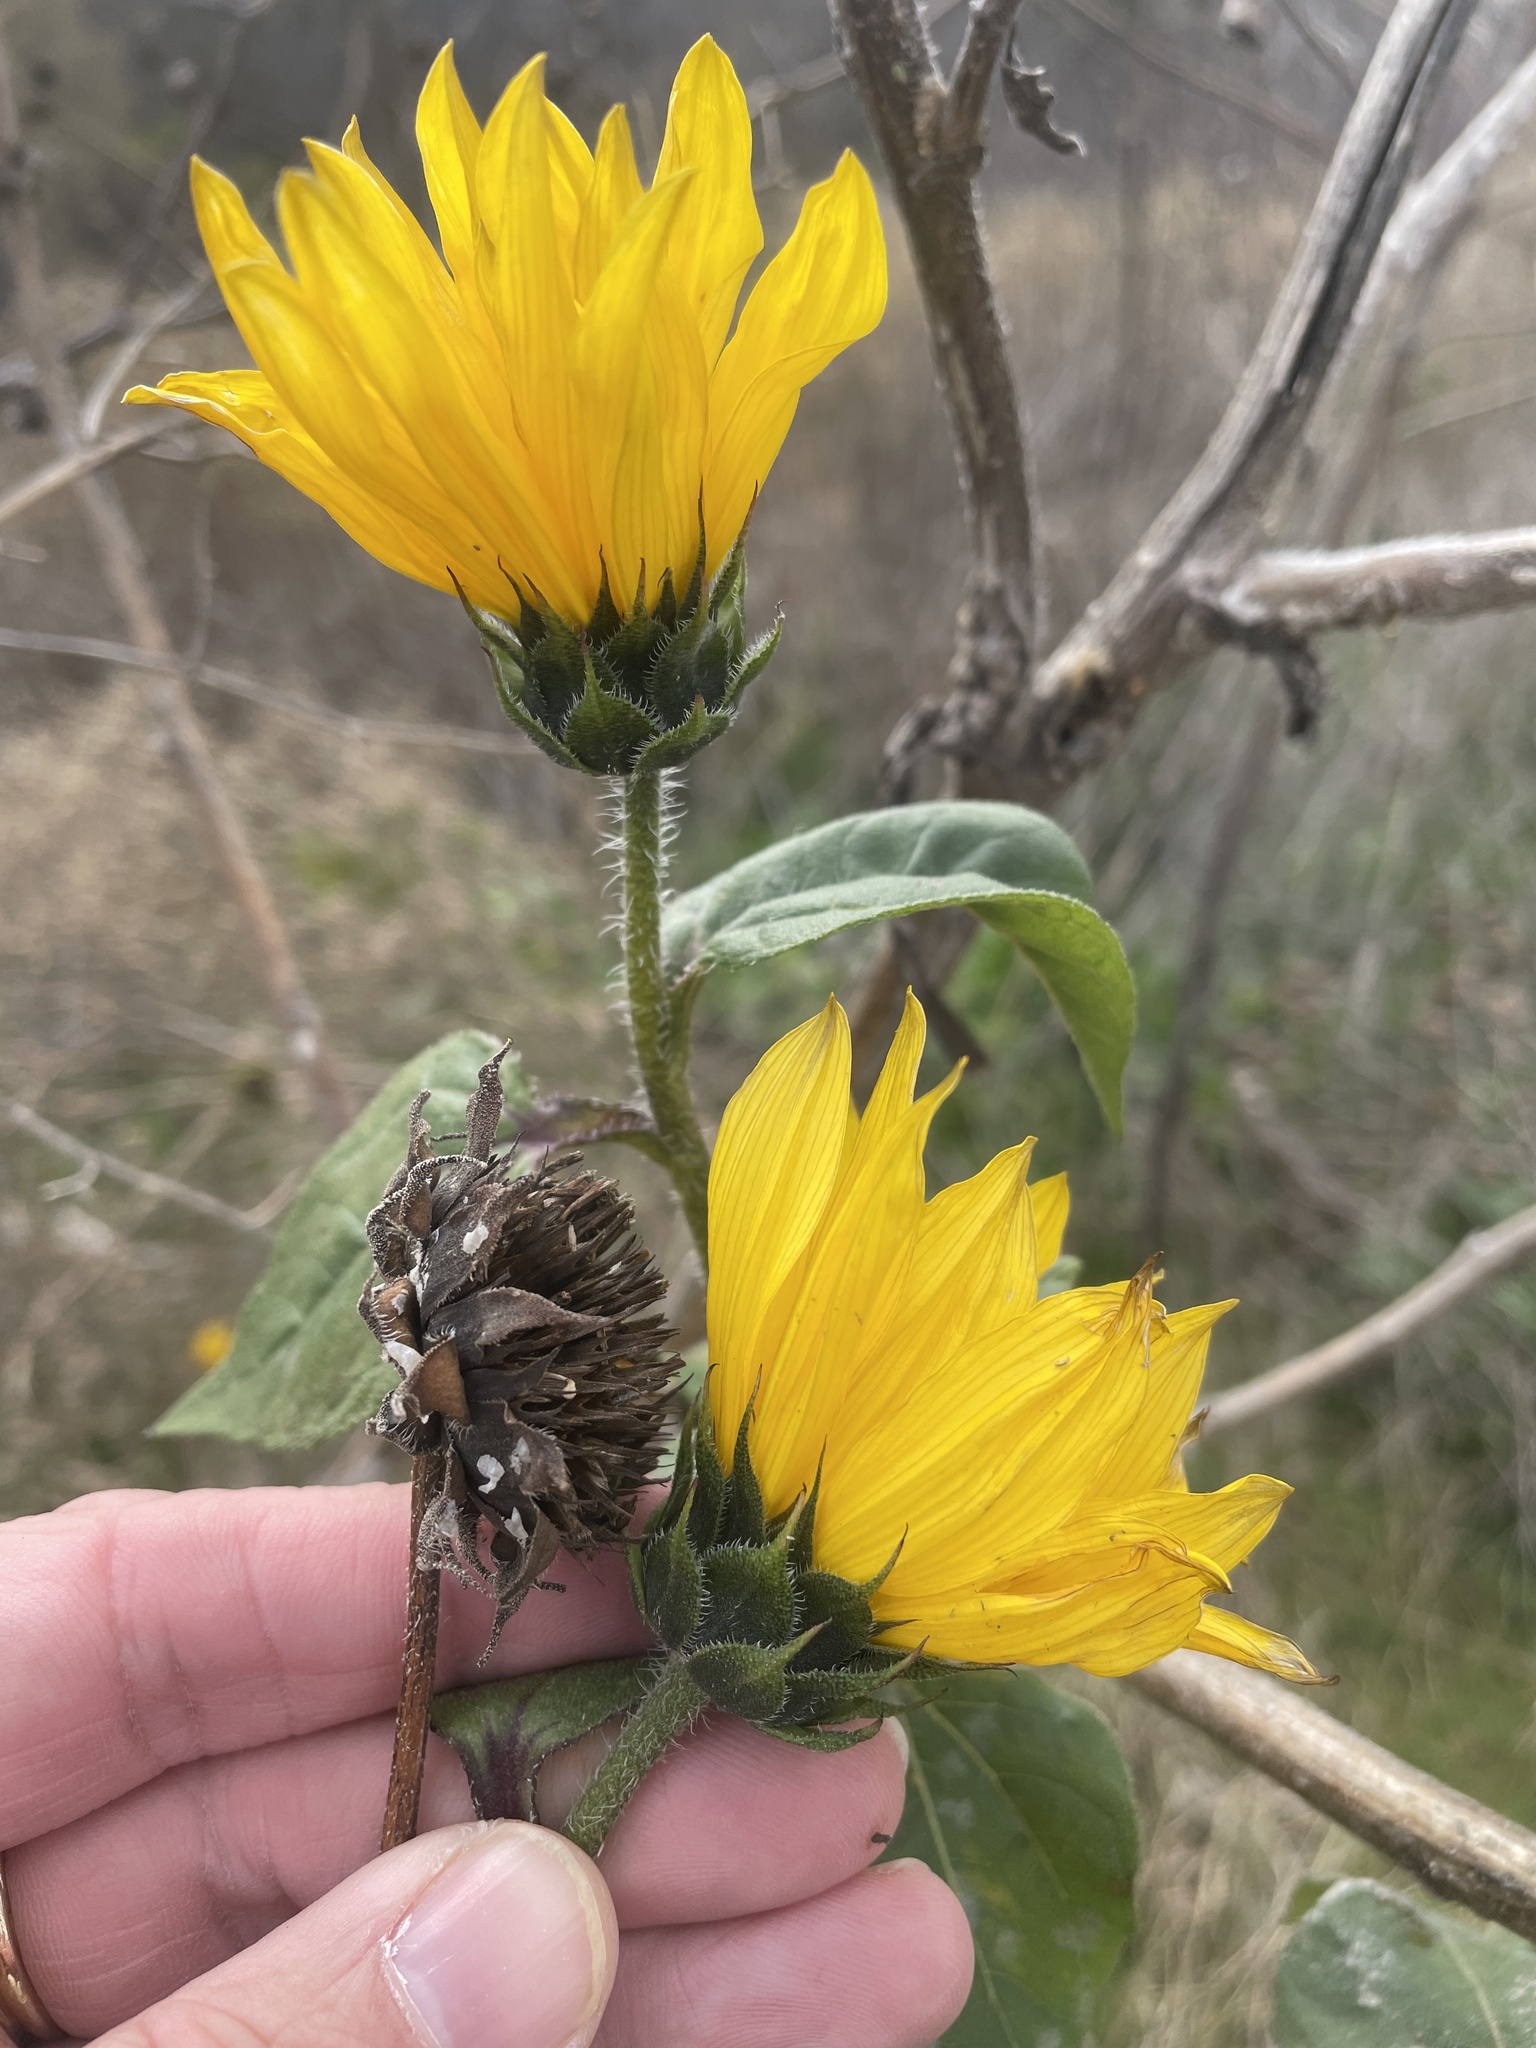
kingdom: Plantae
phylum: Tracheophyta
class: Magnoliopsida
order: Asterales
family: Asteraceae
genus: Helianthus
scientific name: Helianthus annuus
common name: Sunflower
